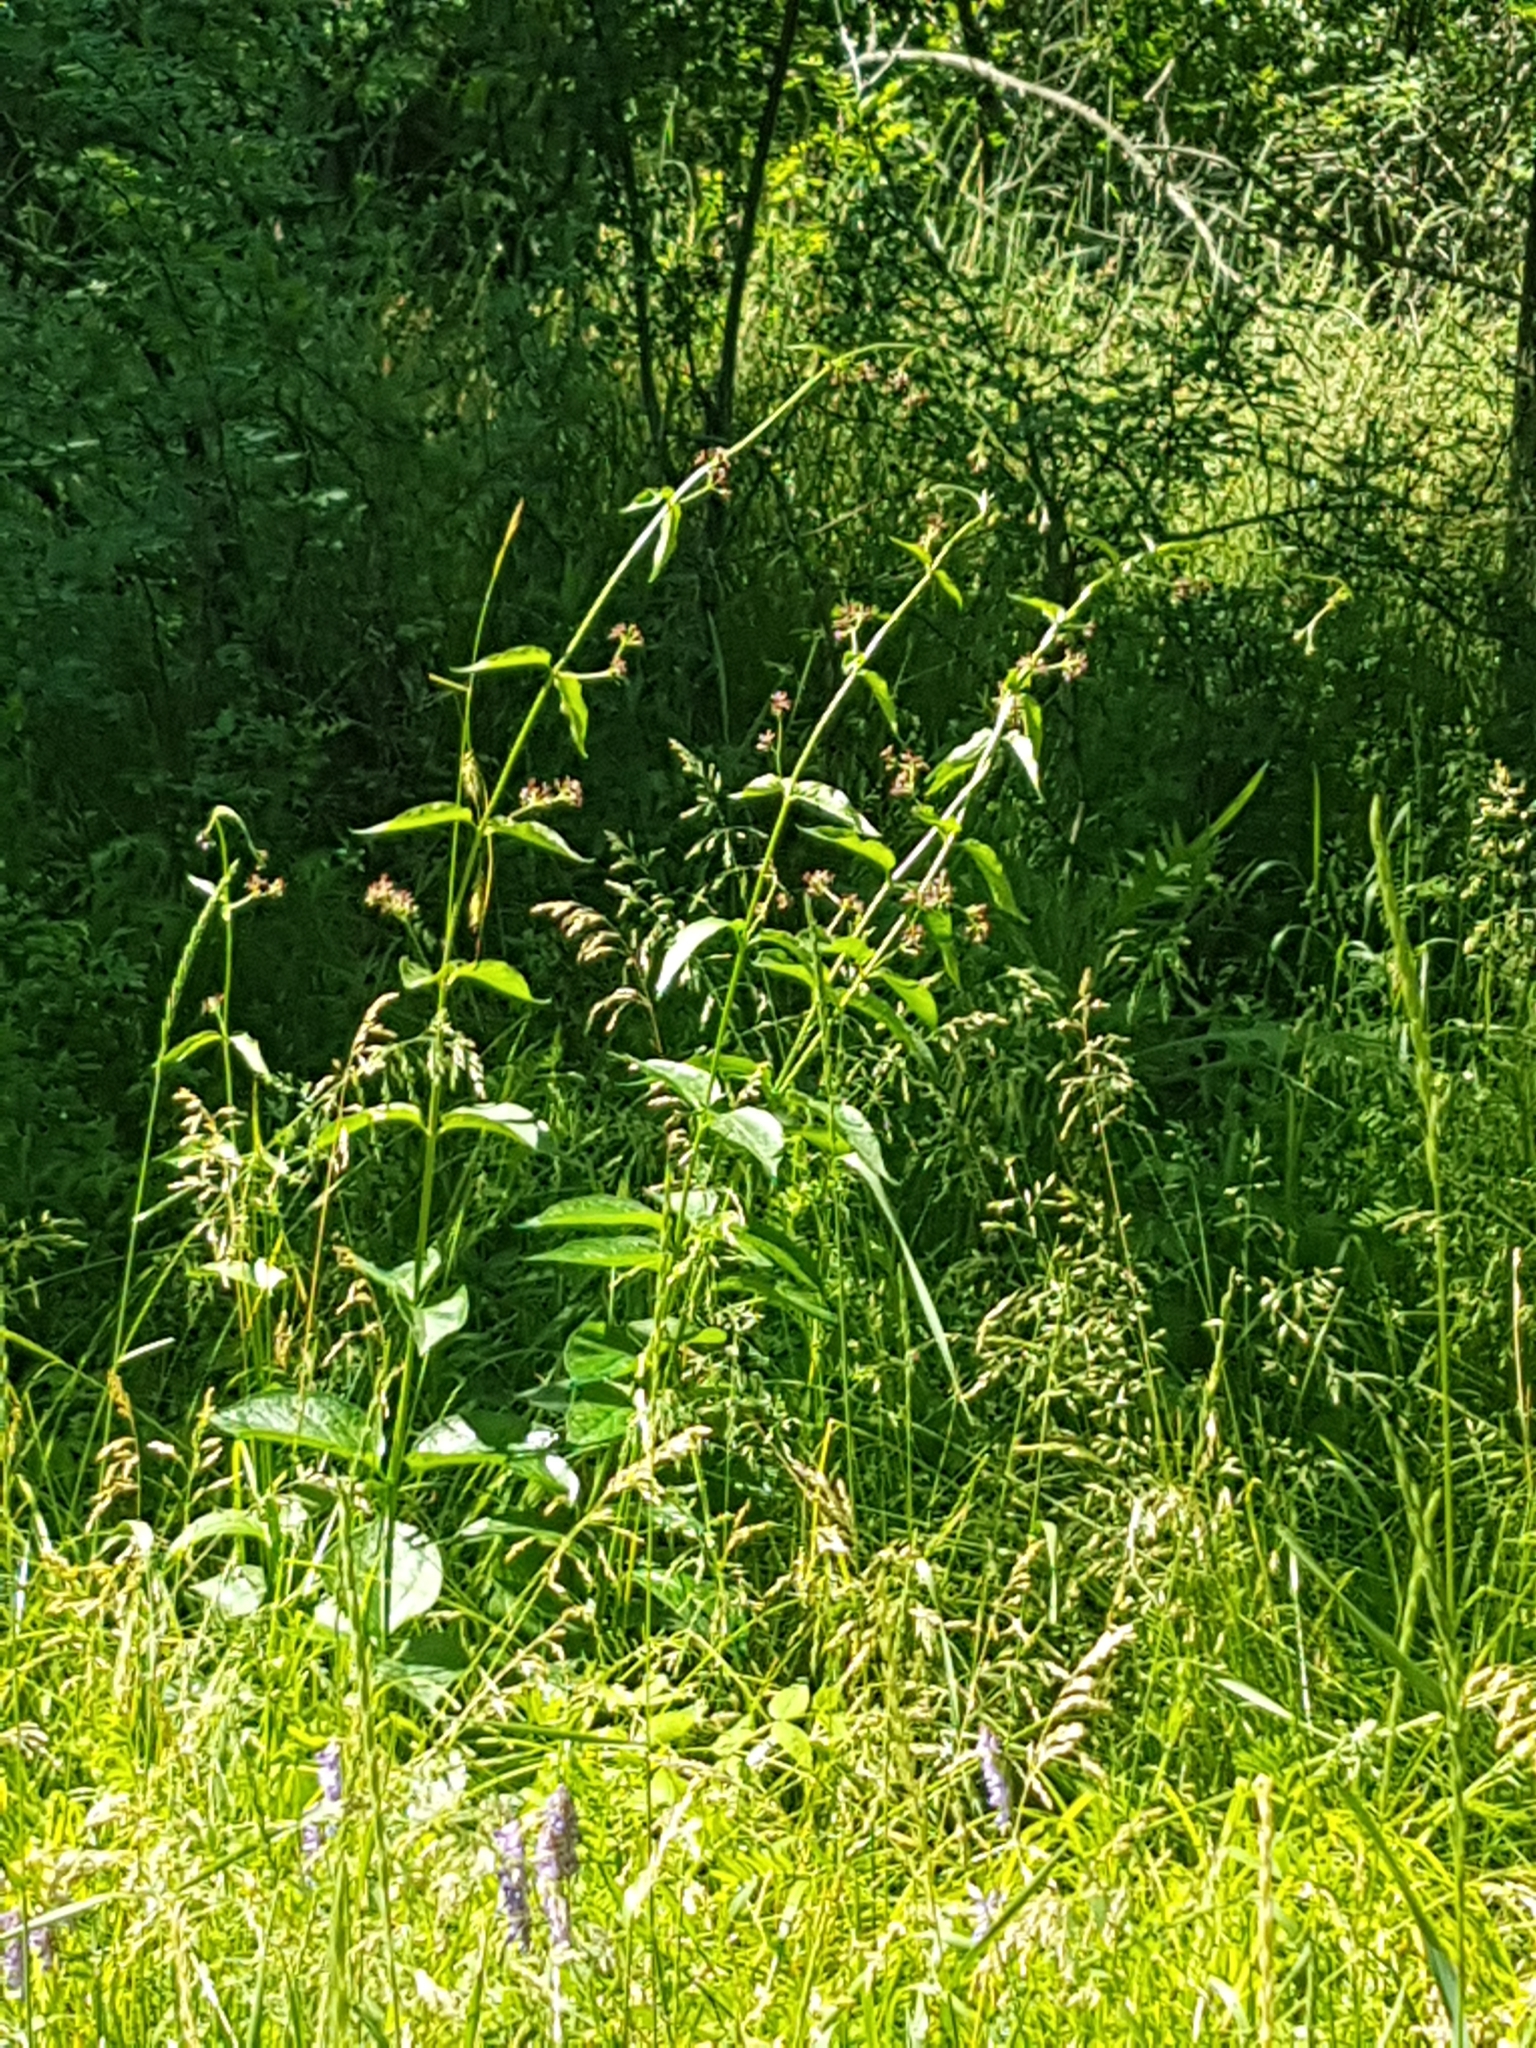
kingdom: Plantae
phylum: Tracheophyta
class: Magnoliopsida
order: Gentianales
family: Apocynaceae
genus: Vincetoxicum
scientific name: Vincetoxicum rossicum
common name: Dog-strangling vine
